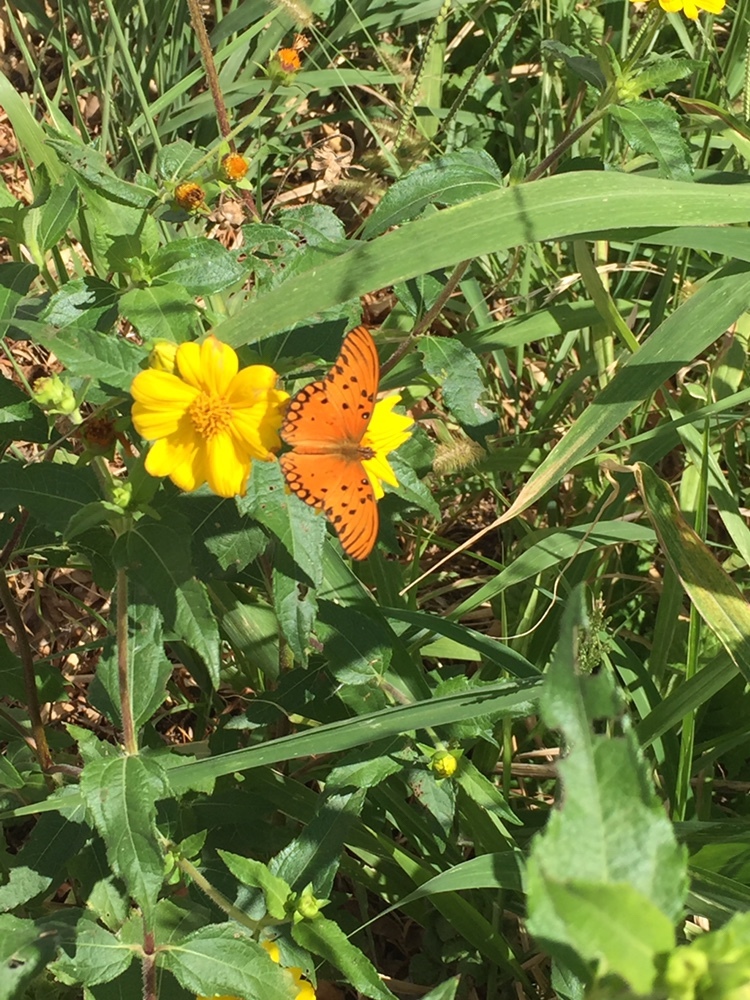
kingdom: Animalia
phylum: Arthropoda
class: Insecta
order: Lepidoptera
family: Nymphalidae
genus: Dione
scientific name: Dione vanillae
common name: Gulf fritillary
